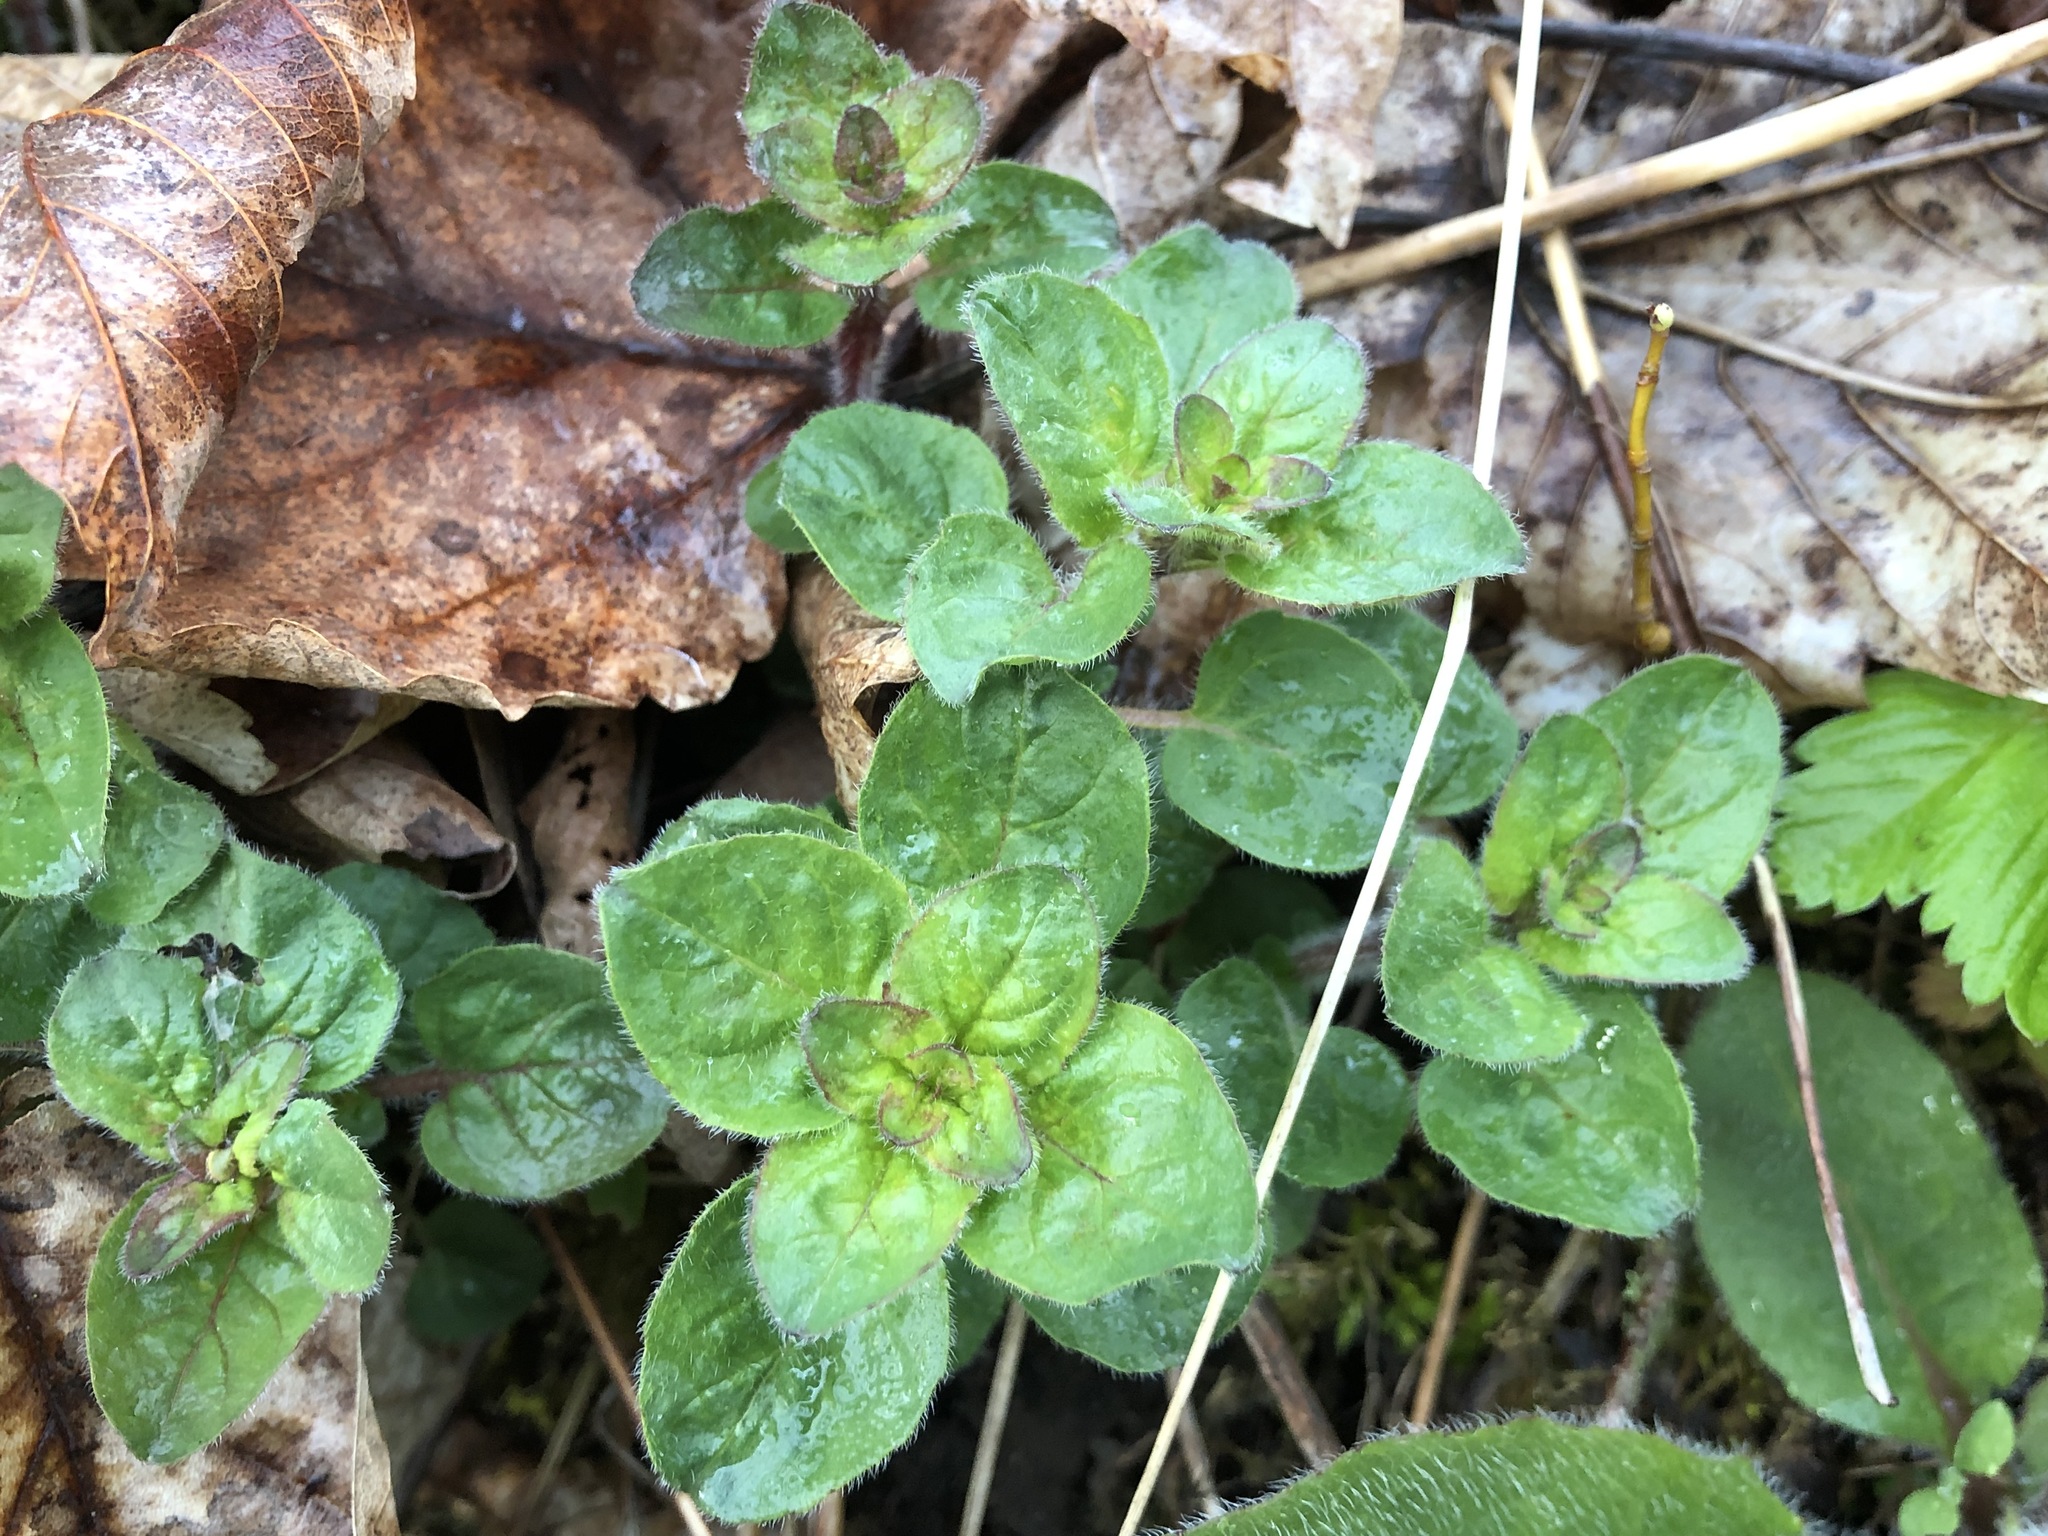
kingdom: Plantae
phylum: Tracheophyta
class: Magnoliopsida
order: Lamiales
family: Lamiaceae
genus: Origanum
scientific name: Origanum vulgare
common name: Wild marjoram
